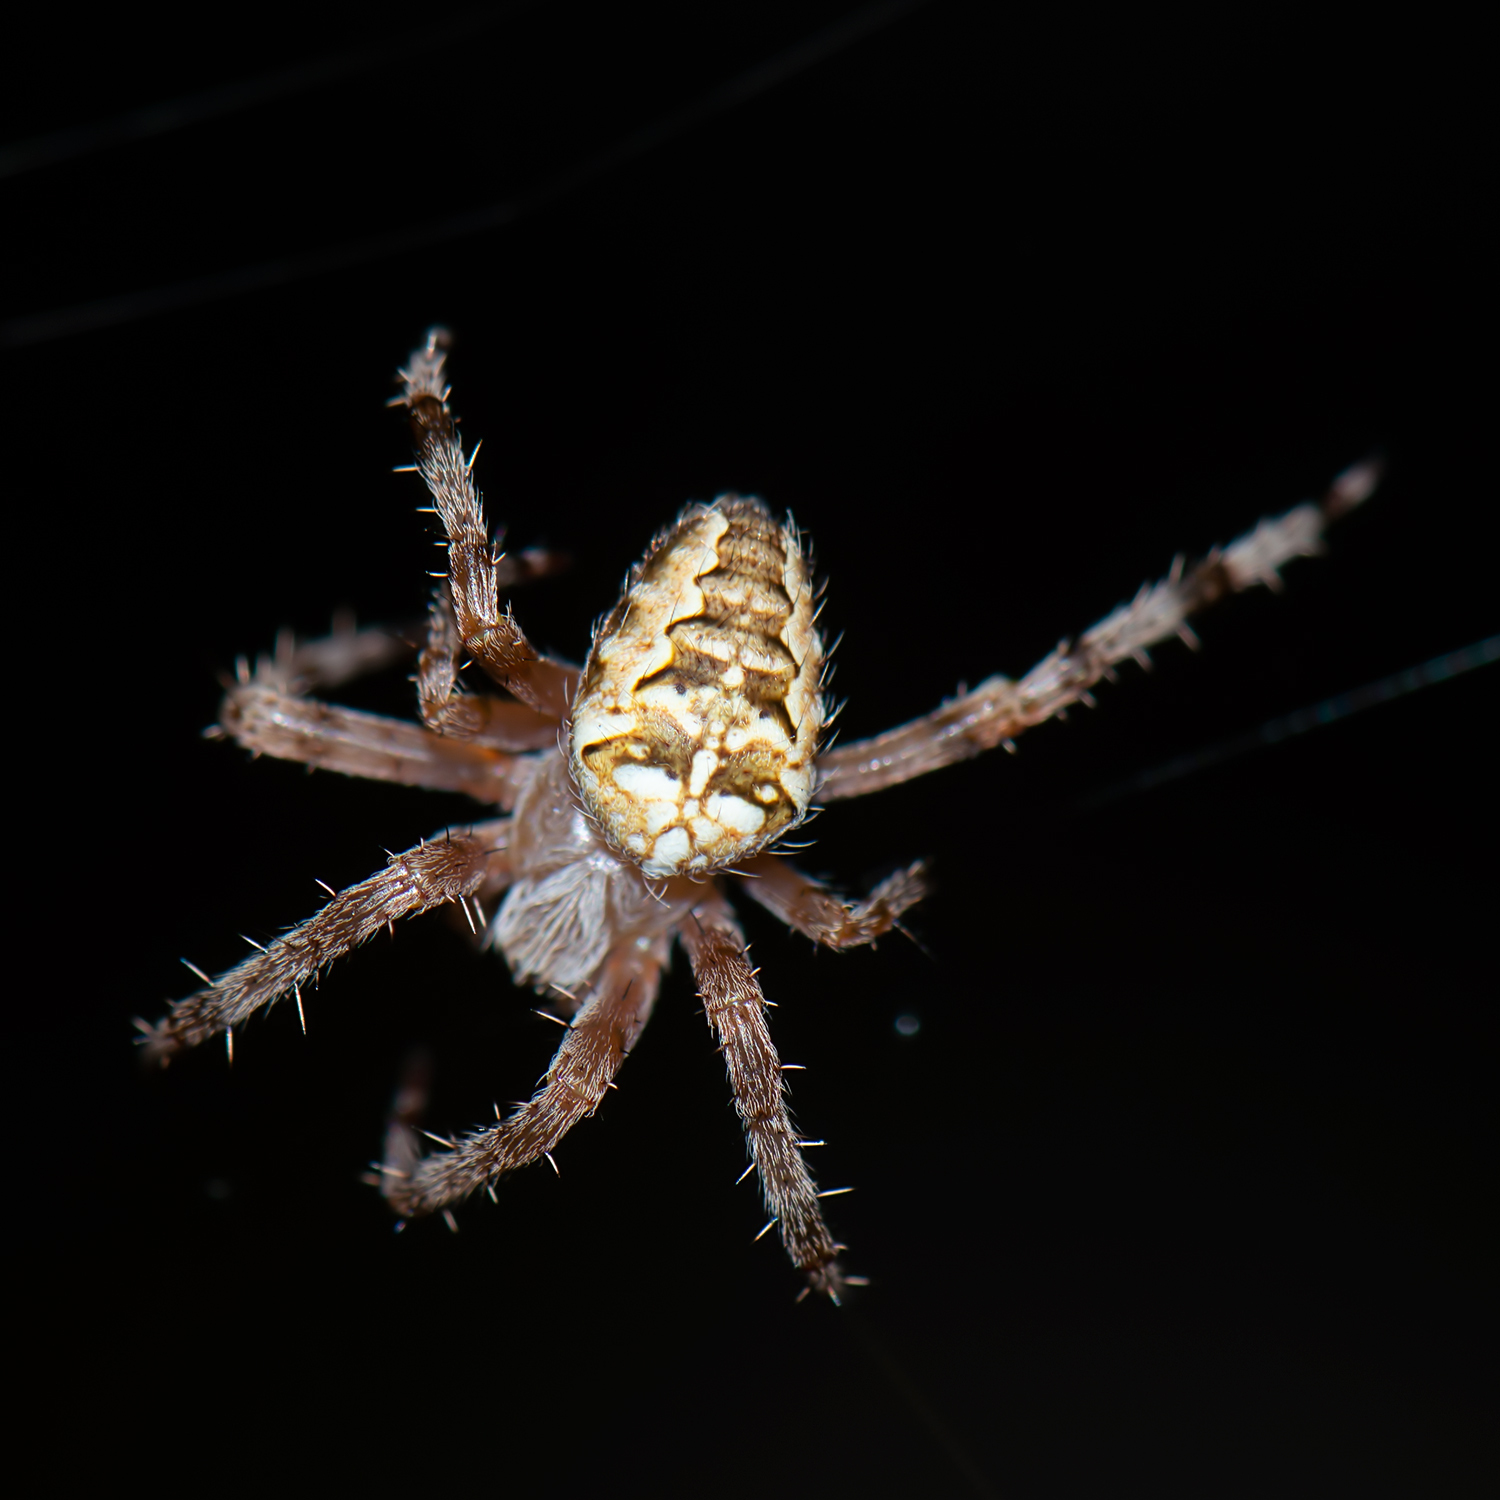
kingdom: Animalia
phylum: Arthropoda
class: Arachnida
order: Araneae
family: Araneidae
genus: Araneus
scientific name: Araneus diadematus
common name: Cross orbweaver
